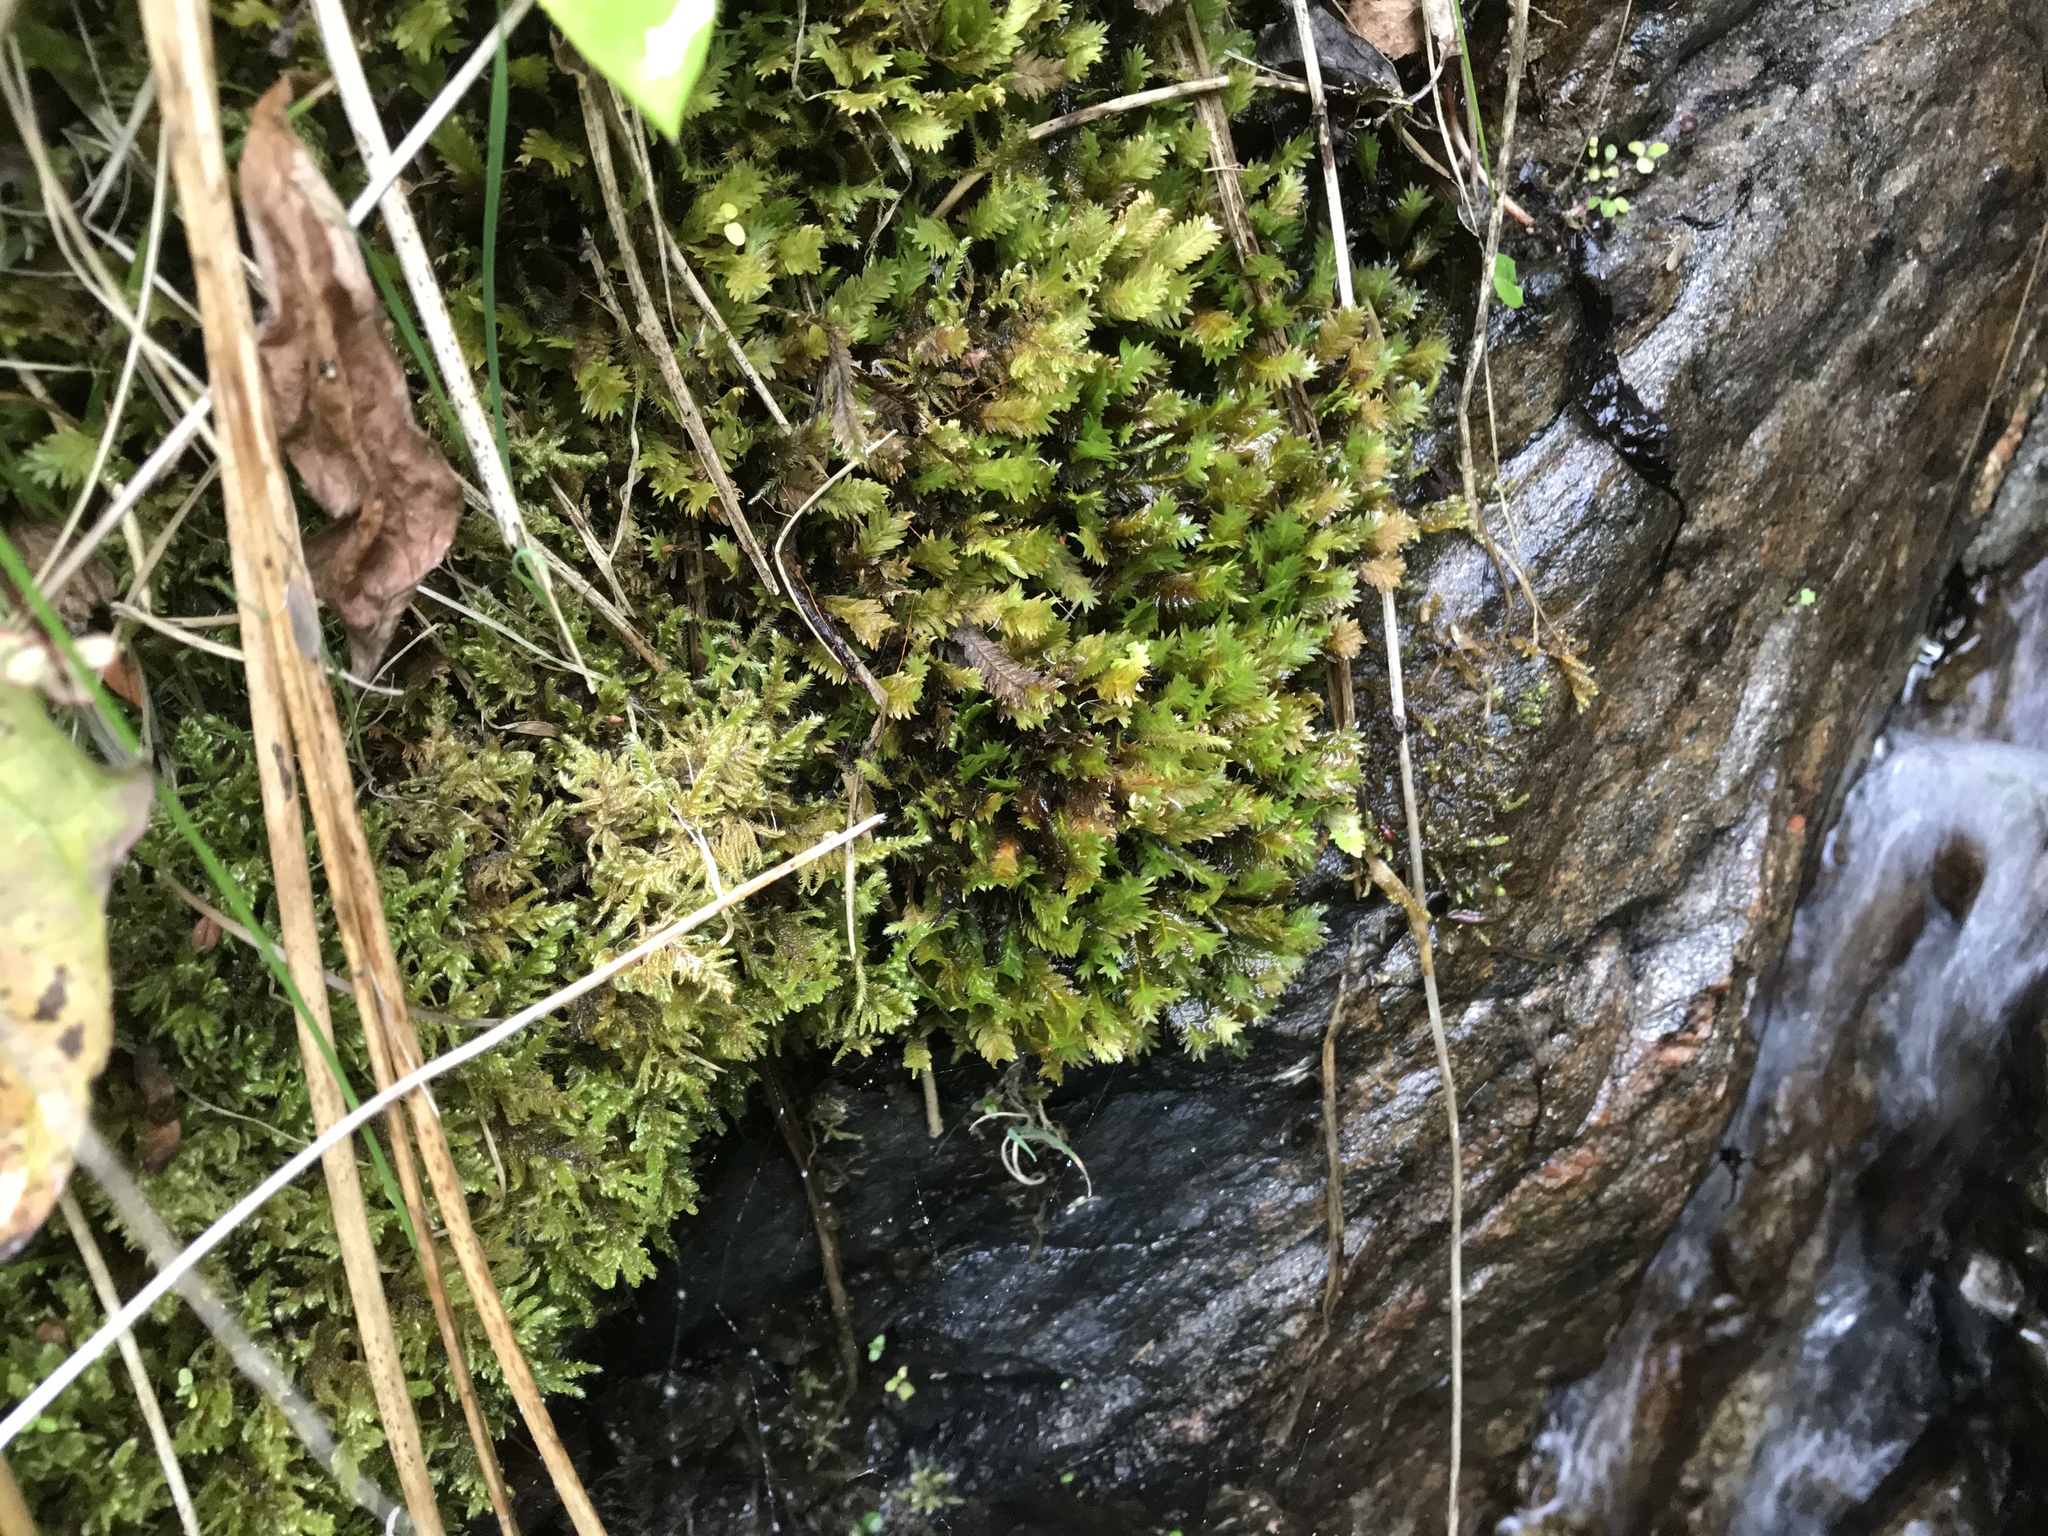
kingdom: Plantae
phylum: Bryophyta
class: Bryopsida
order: Dicranales
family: Fissidentaceae
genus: Fissidens
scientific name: Fissidens adianthoides
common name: Maidenhair pocket moss
